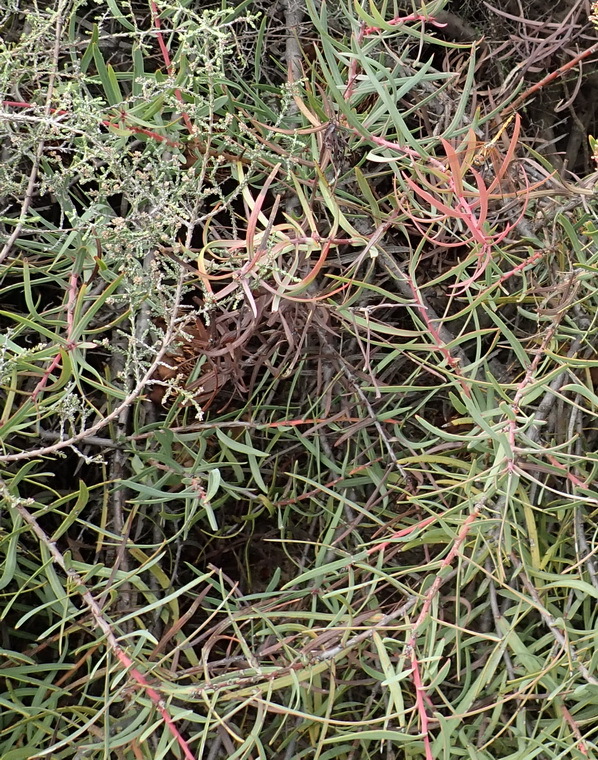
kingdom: Plantae
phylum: Tracheophyta
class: Magnoliopsida
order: Proteales
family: Proteaceae
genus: Protea
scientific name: Protea humiflora
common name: Patent-leaf sugarbush
